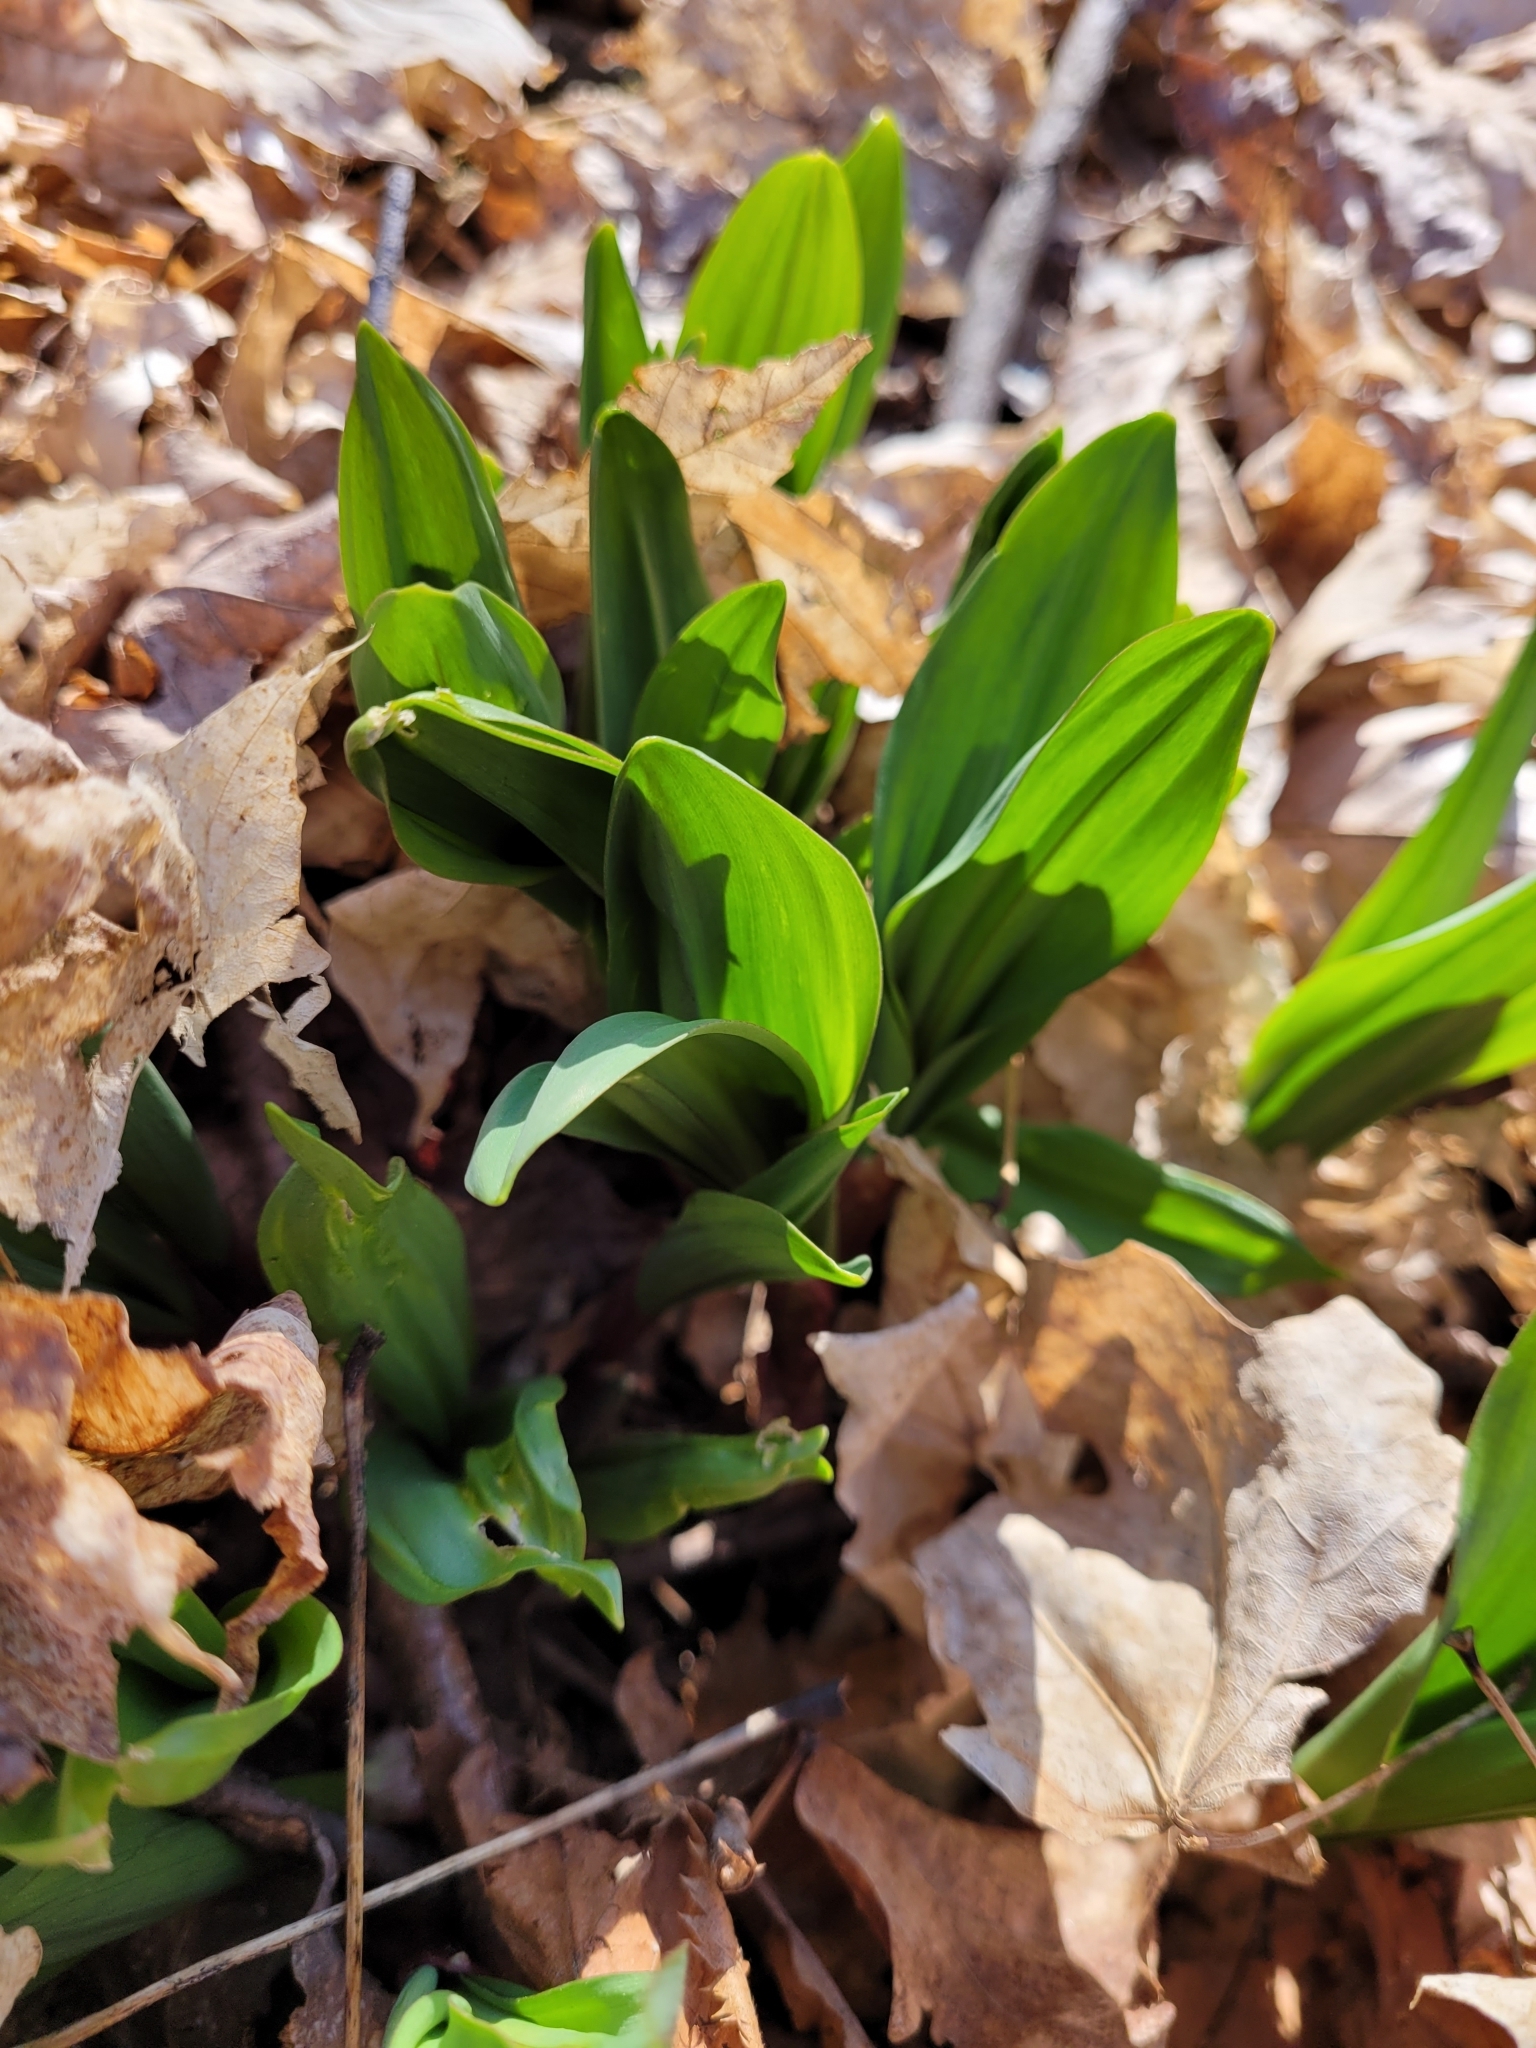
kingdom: Plantae
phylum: Tracheophyta
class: Liliopsida
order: Asparagales
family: Amaryllidaceae
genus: Allium
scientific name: Allium tricoccum
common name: Ramp
